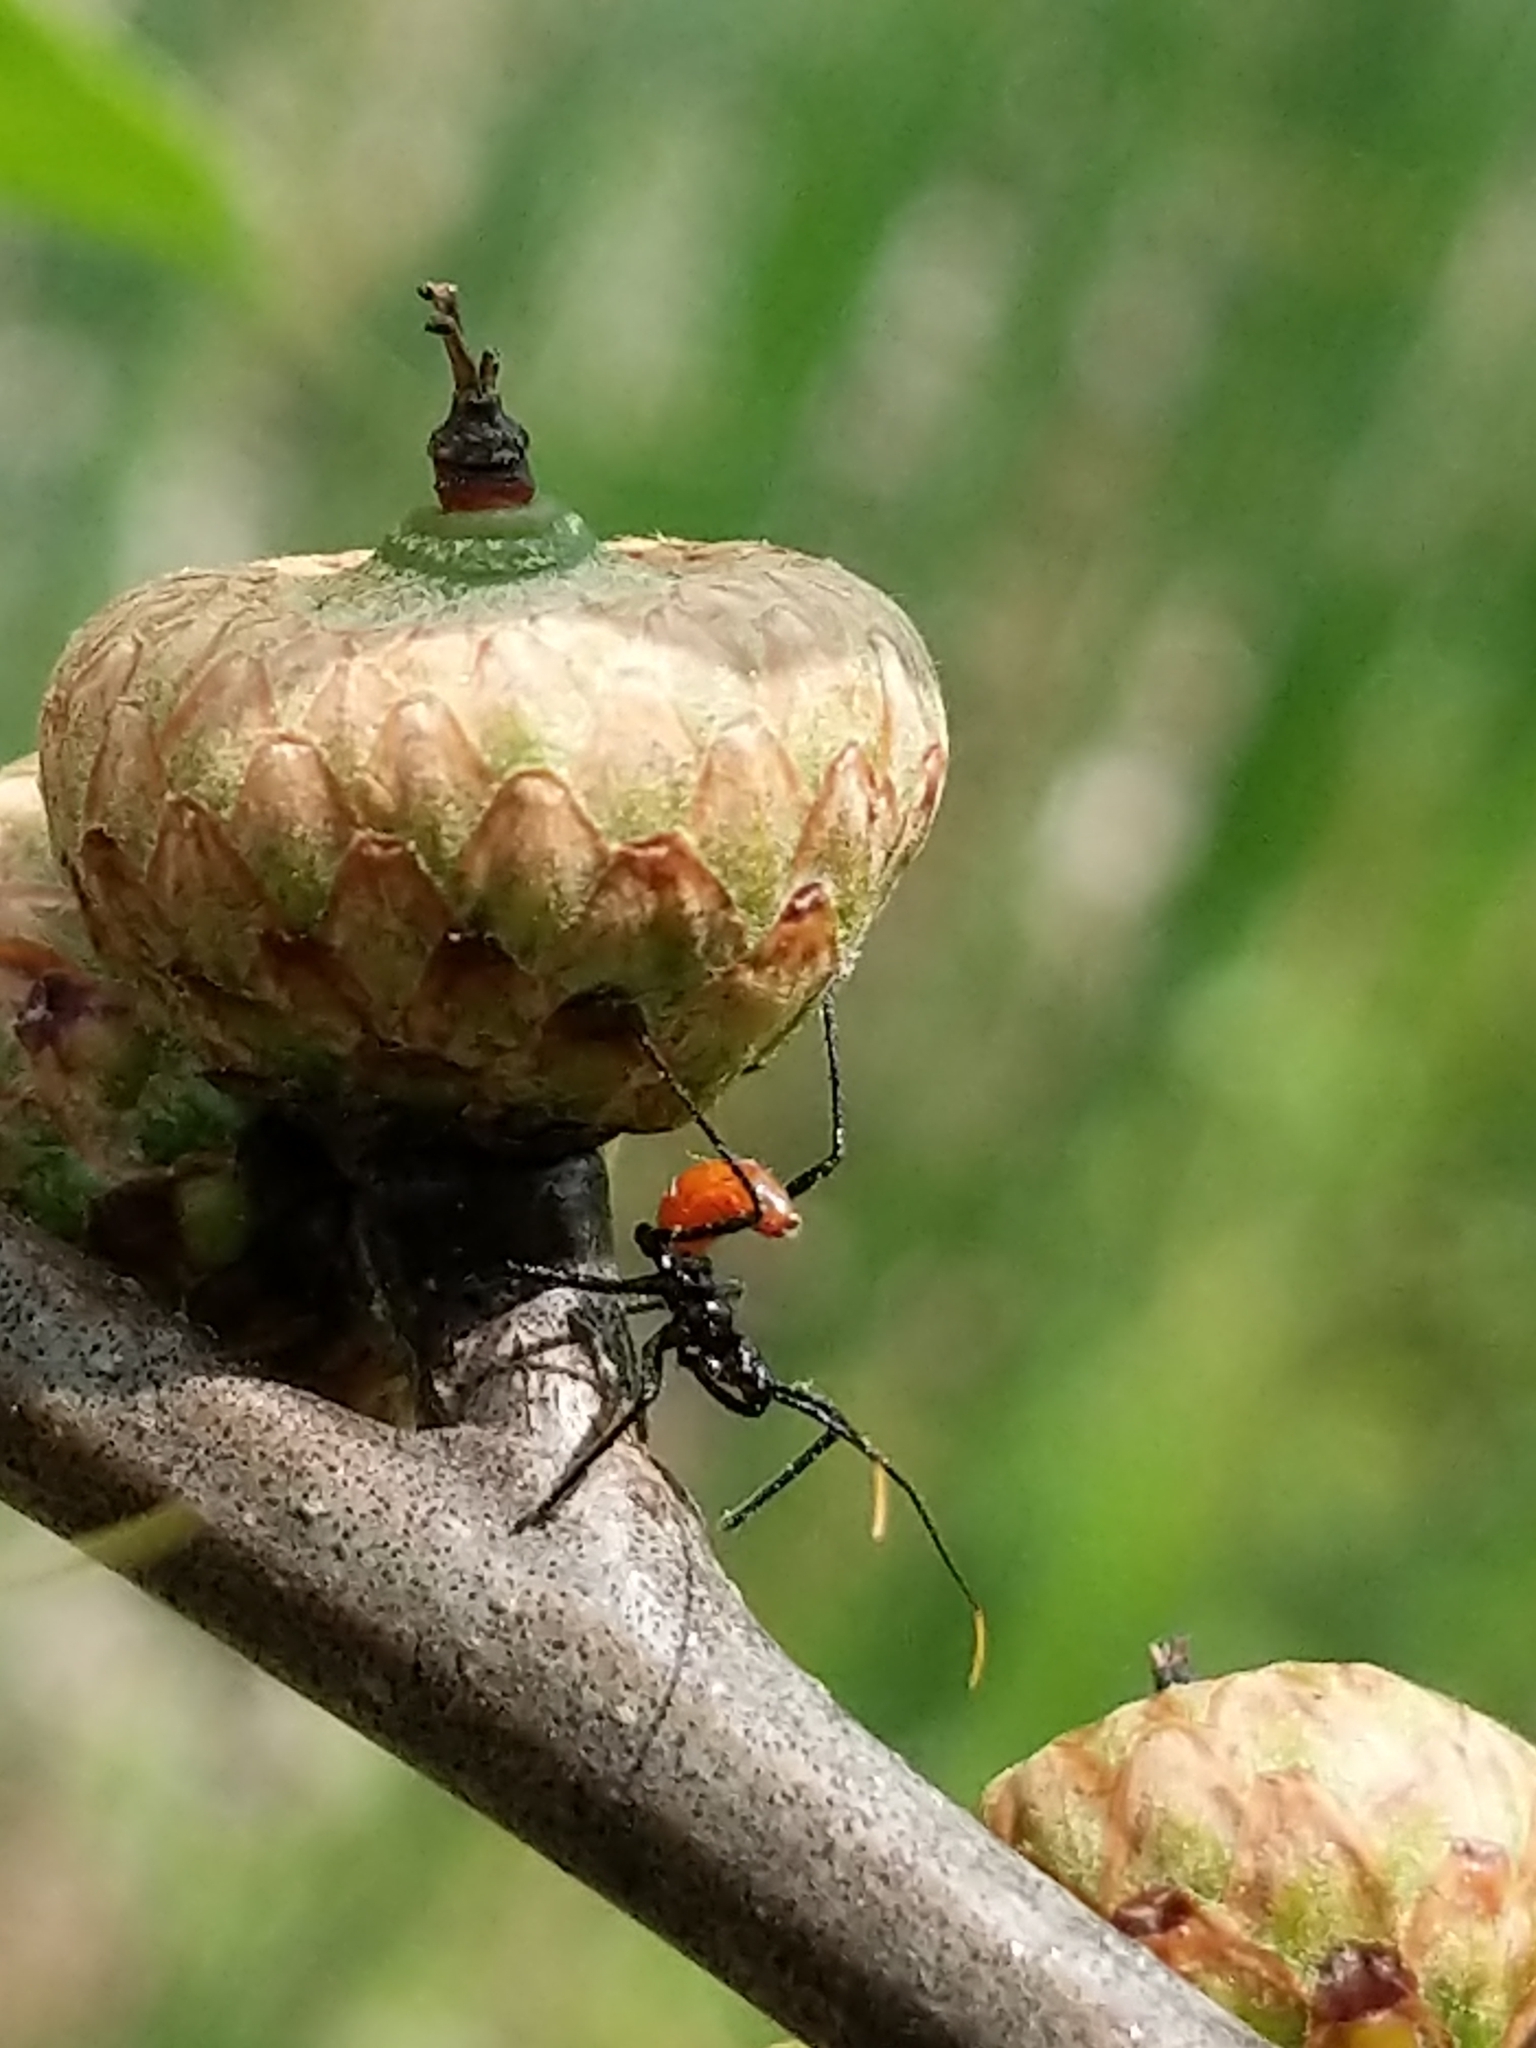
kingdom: Animalia
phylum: Arthropoda
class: Insecta
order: Hemiptera
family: Reduviidae
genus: Arilus
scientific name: Arilus cristatus
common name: North american wheel bug
